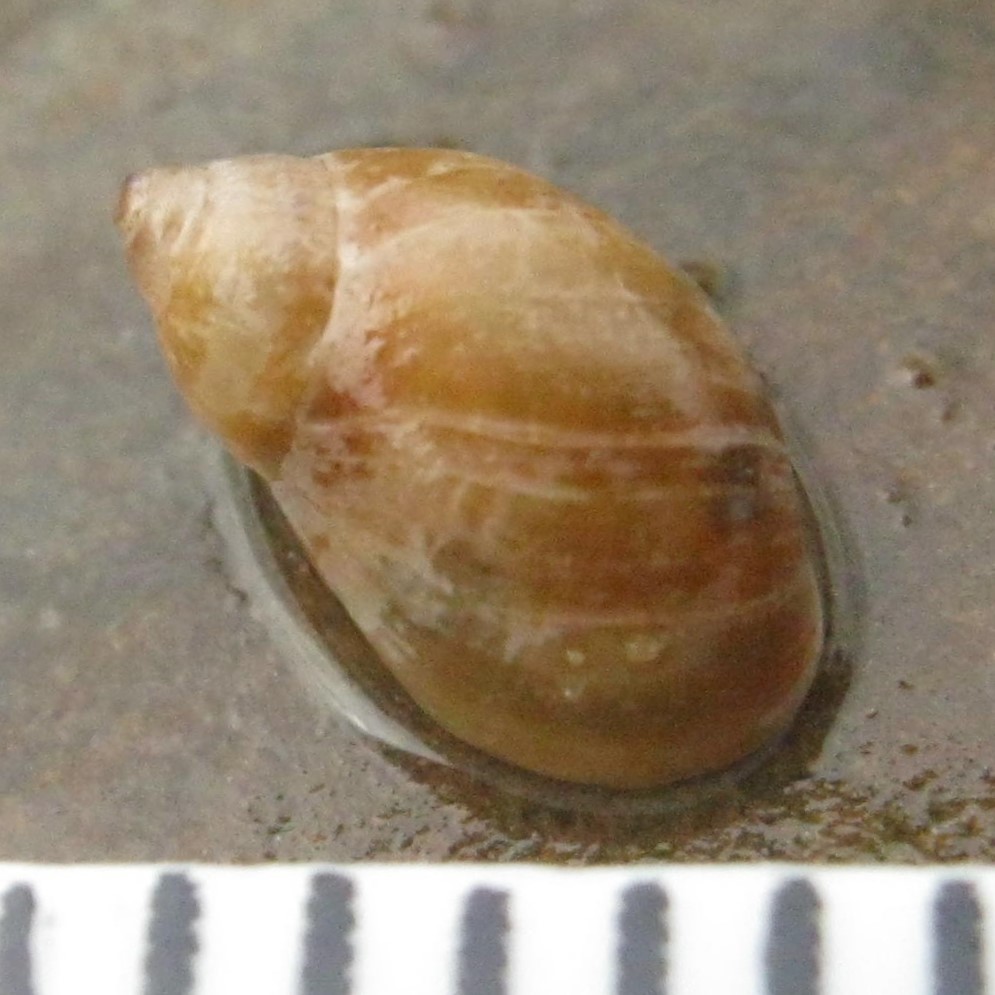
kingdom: Animalia
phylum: Mollusca
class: Gastropoda
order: Ellobiida
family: Ellobiidae
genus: Marinula
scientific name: Marinula filholi
